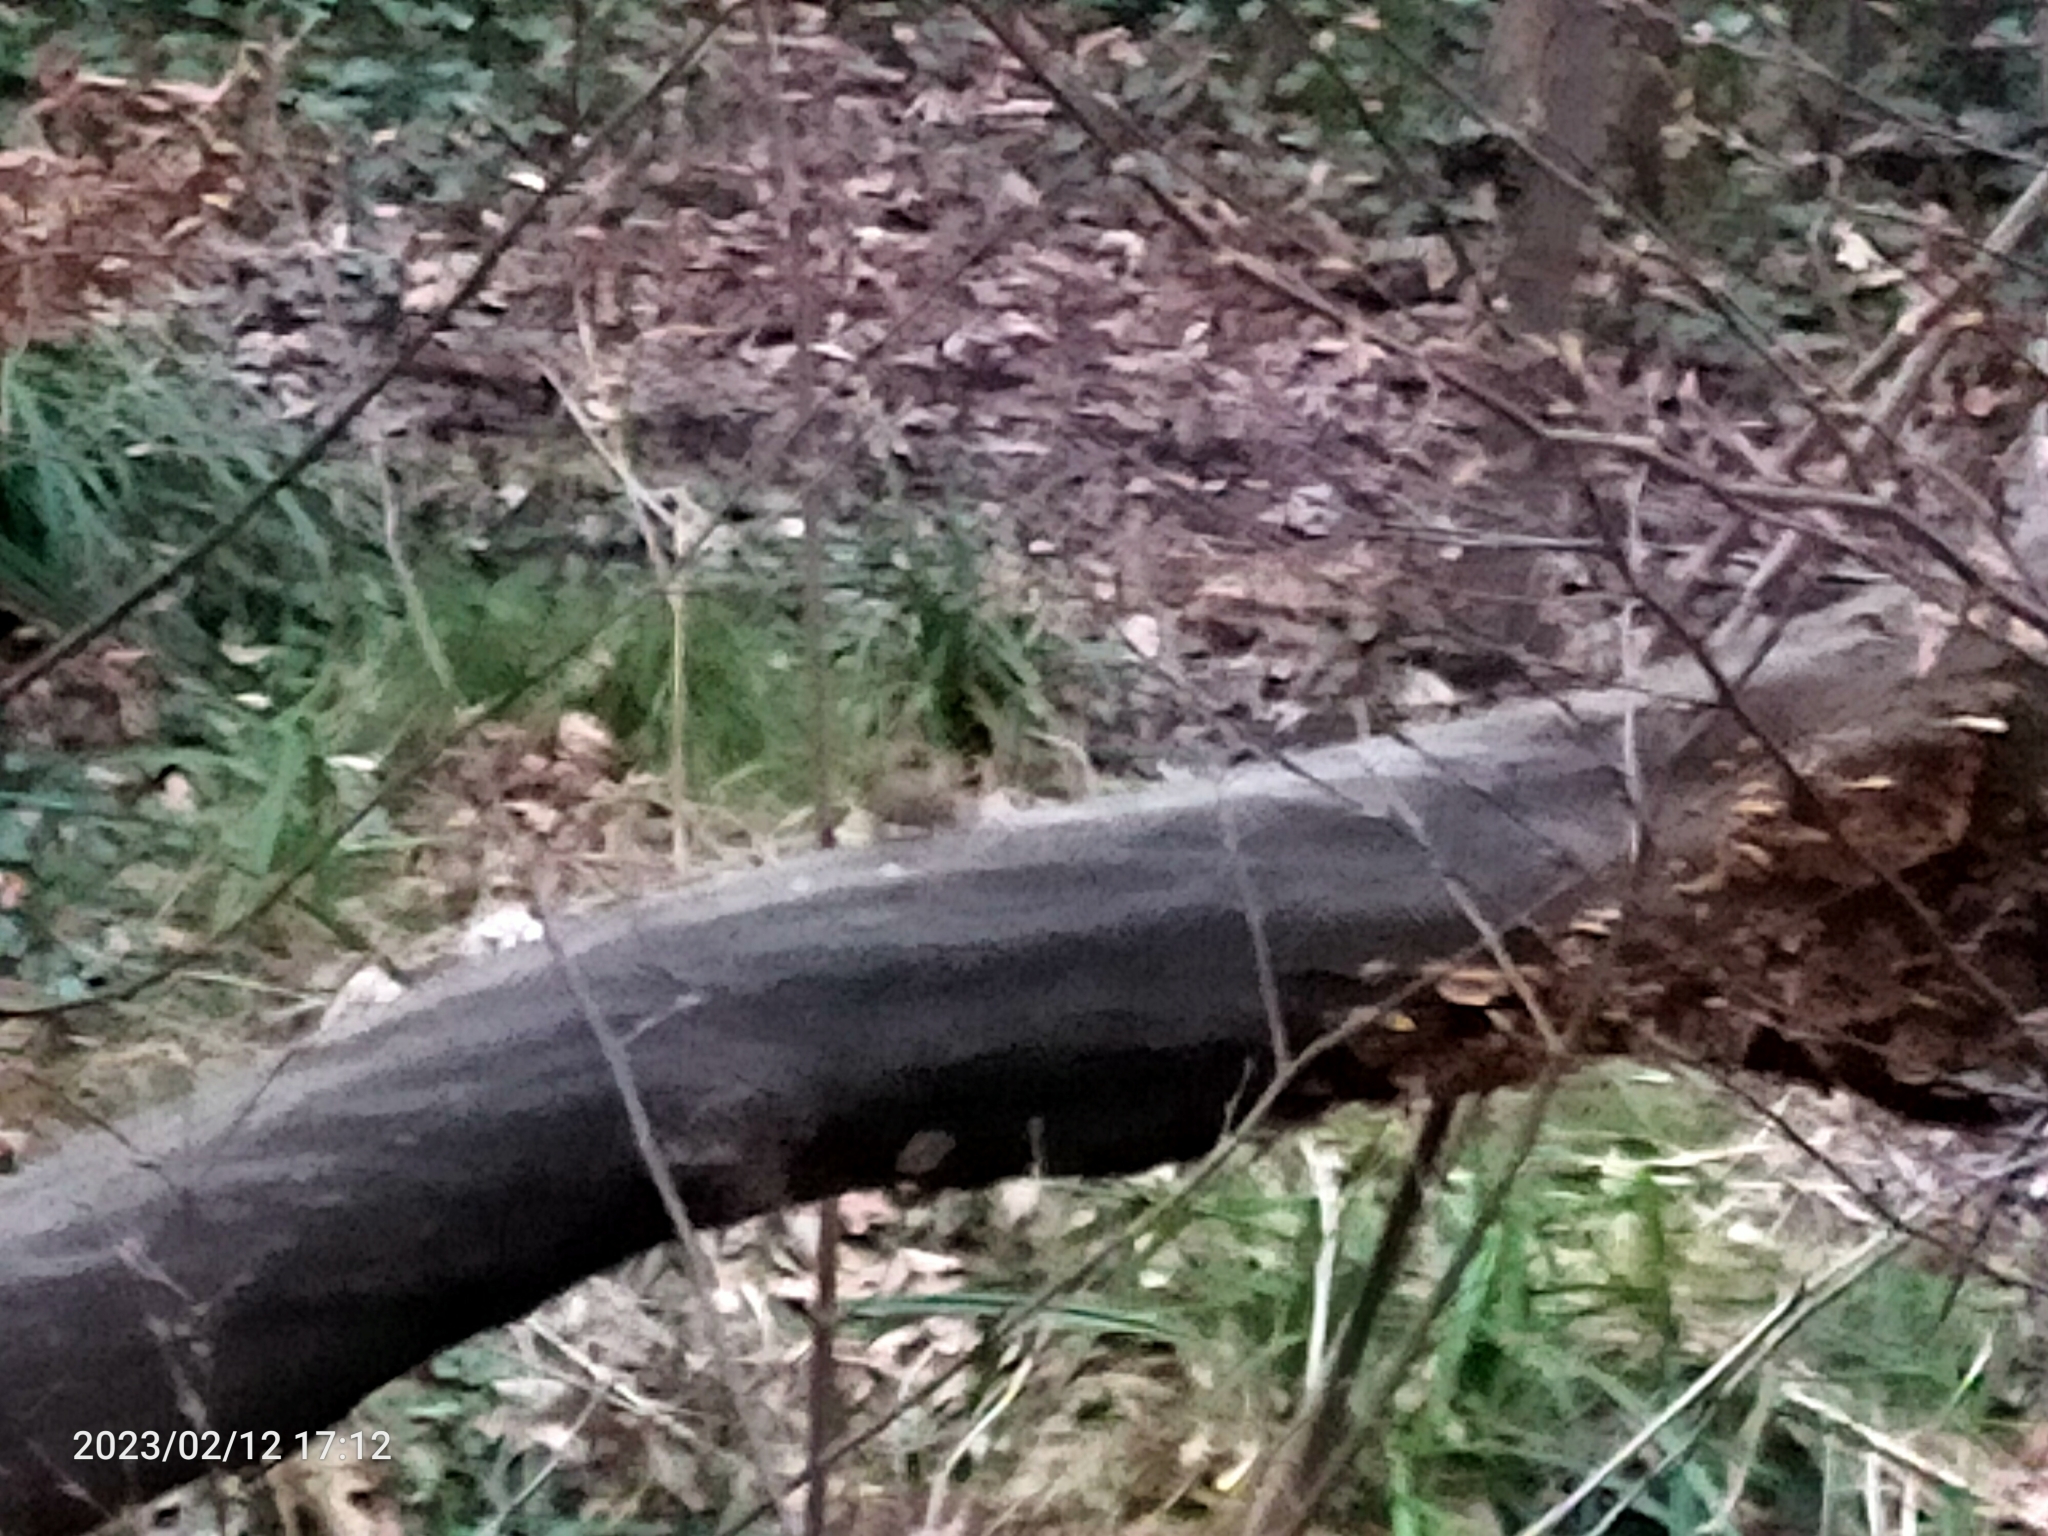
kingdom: Animalia
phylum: Chordata
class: Aves
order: Passeriformes
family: Troglodytidae
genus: Troglodytes
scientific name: Troglodytes troglodytes
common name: Eurasian wren
